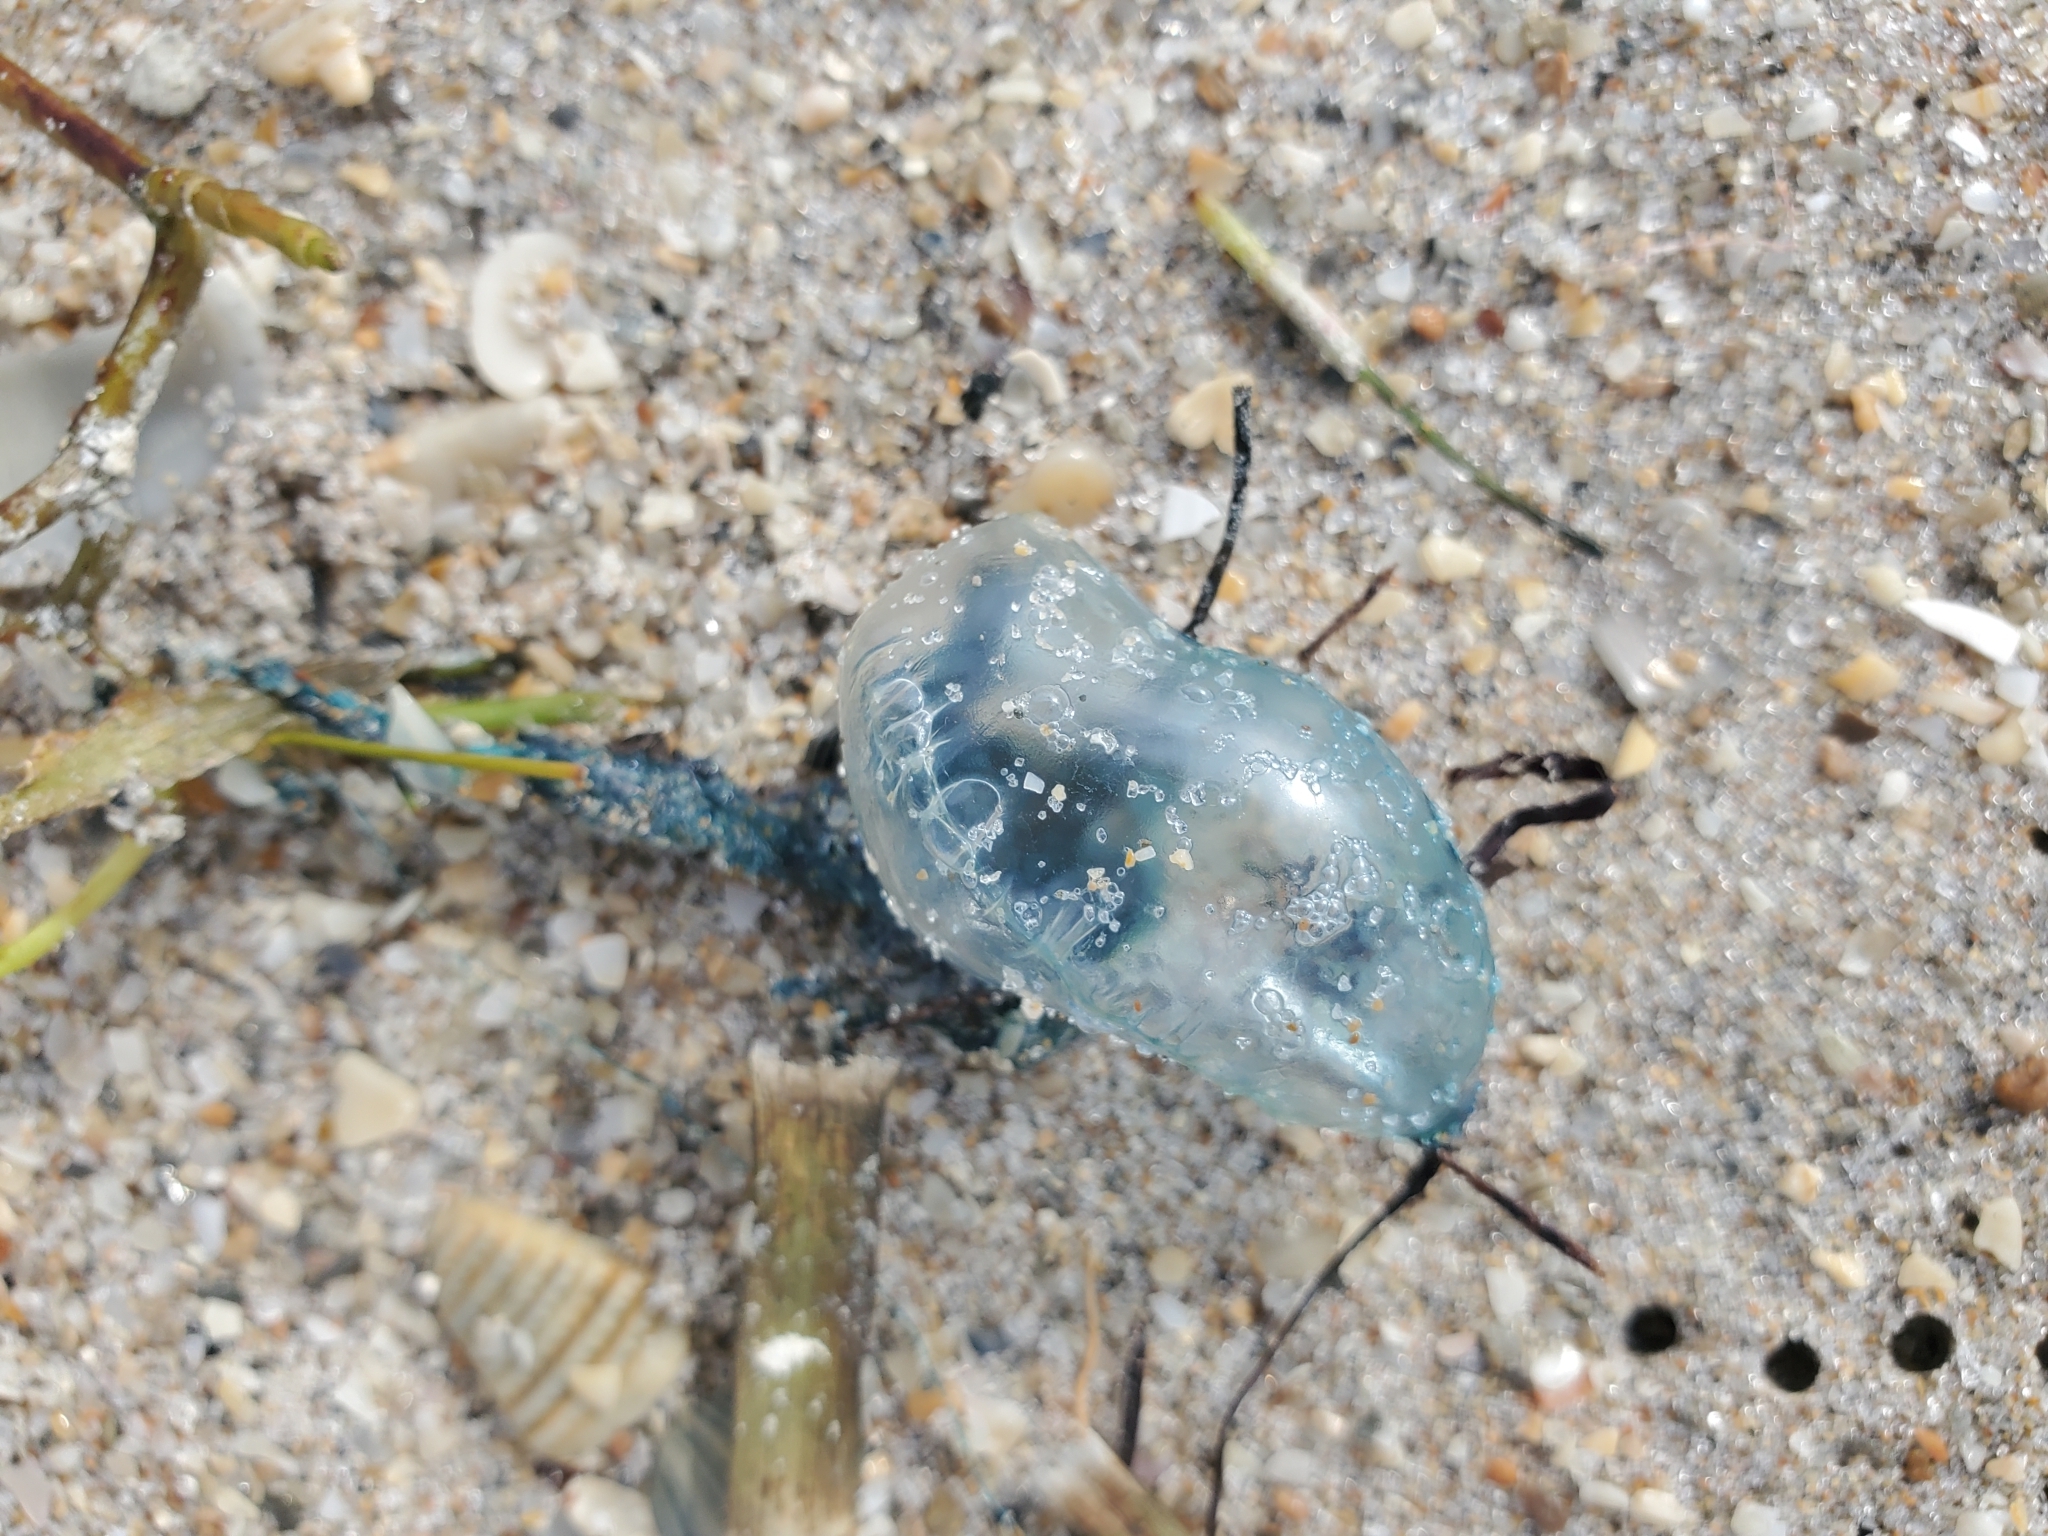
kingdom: Animalia
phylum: Cnidaria
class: Hydrozoa
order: Siphonophorae
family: Physaliidae
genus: Physalia
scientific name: Physalia physalis
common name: Portuguese man-of-war
